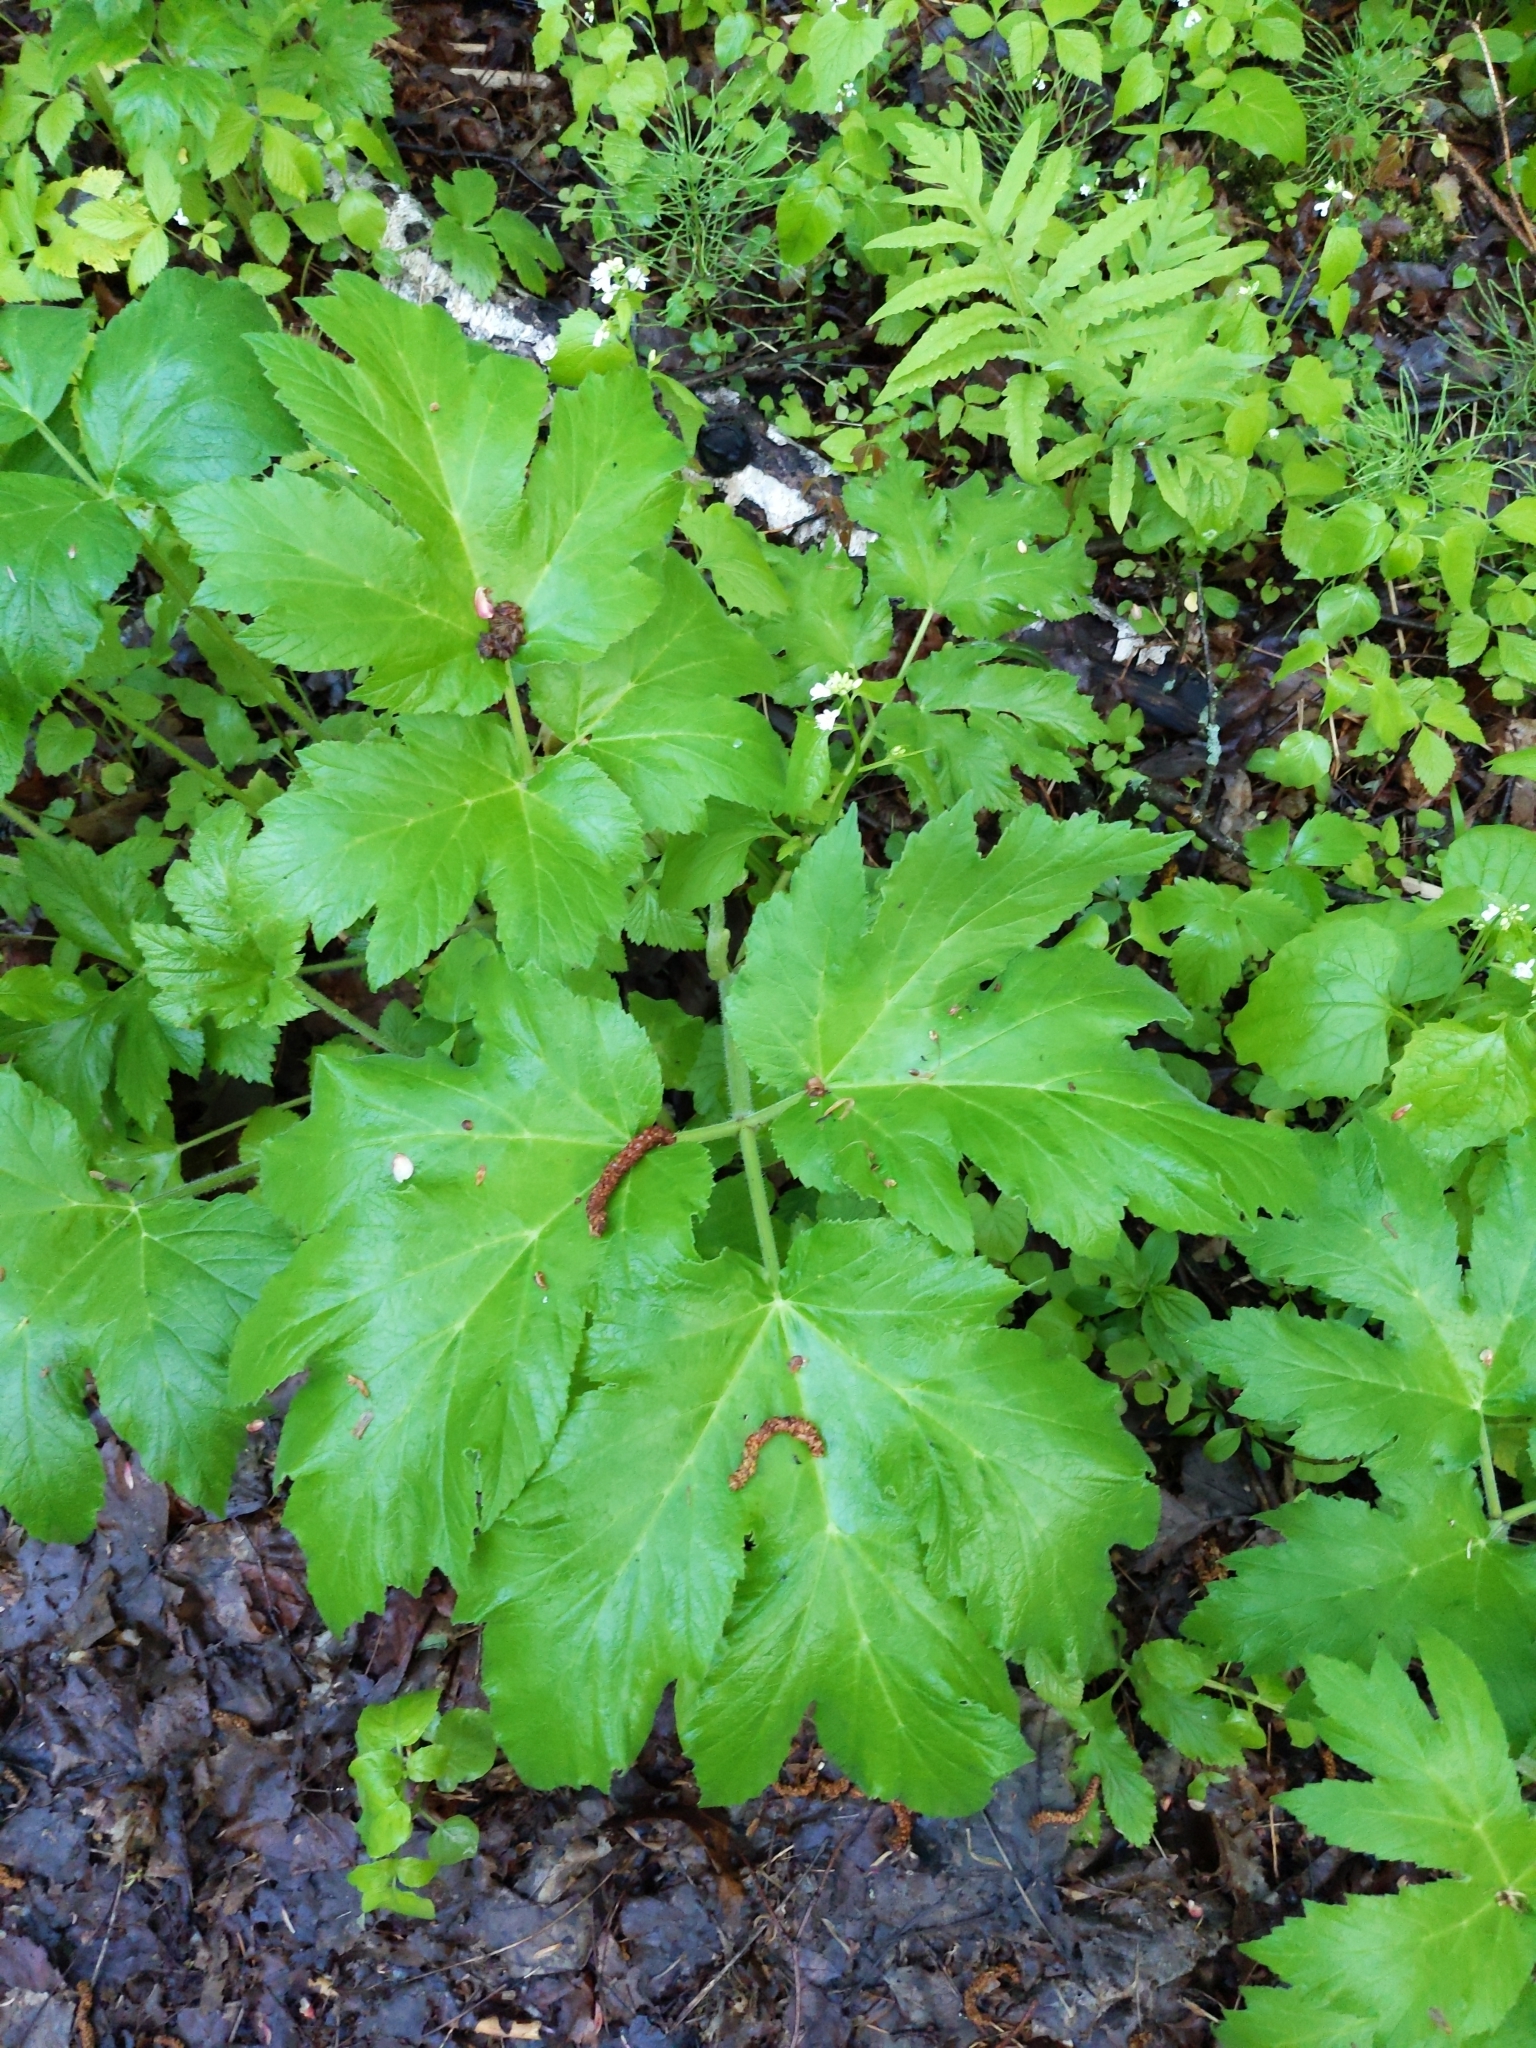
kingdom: Plantae
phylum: Tracheophyta
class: Magnoliopsida
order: Apiales
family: Apiaceae
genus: Heracleum
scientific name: Heracleum maximum
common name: American cow parsnip
